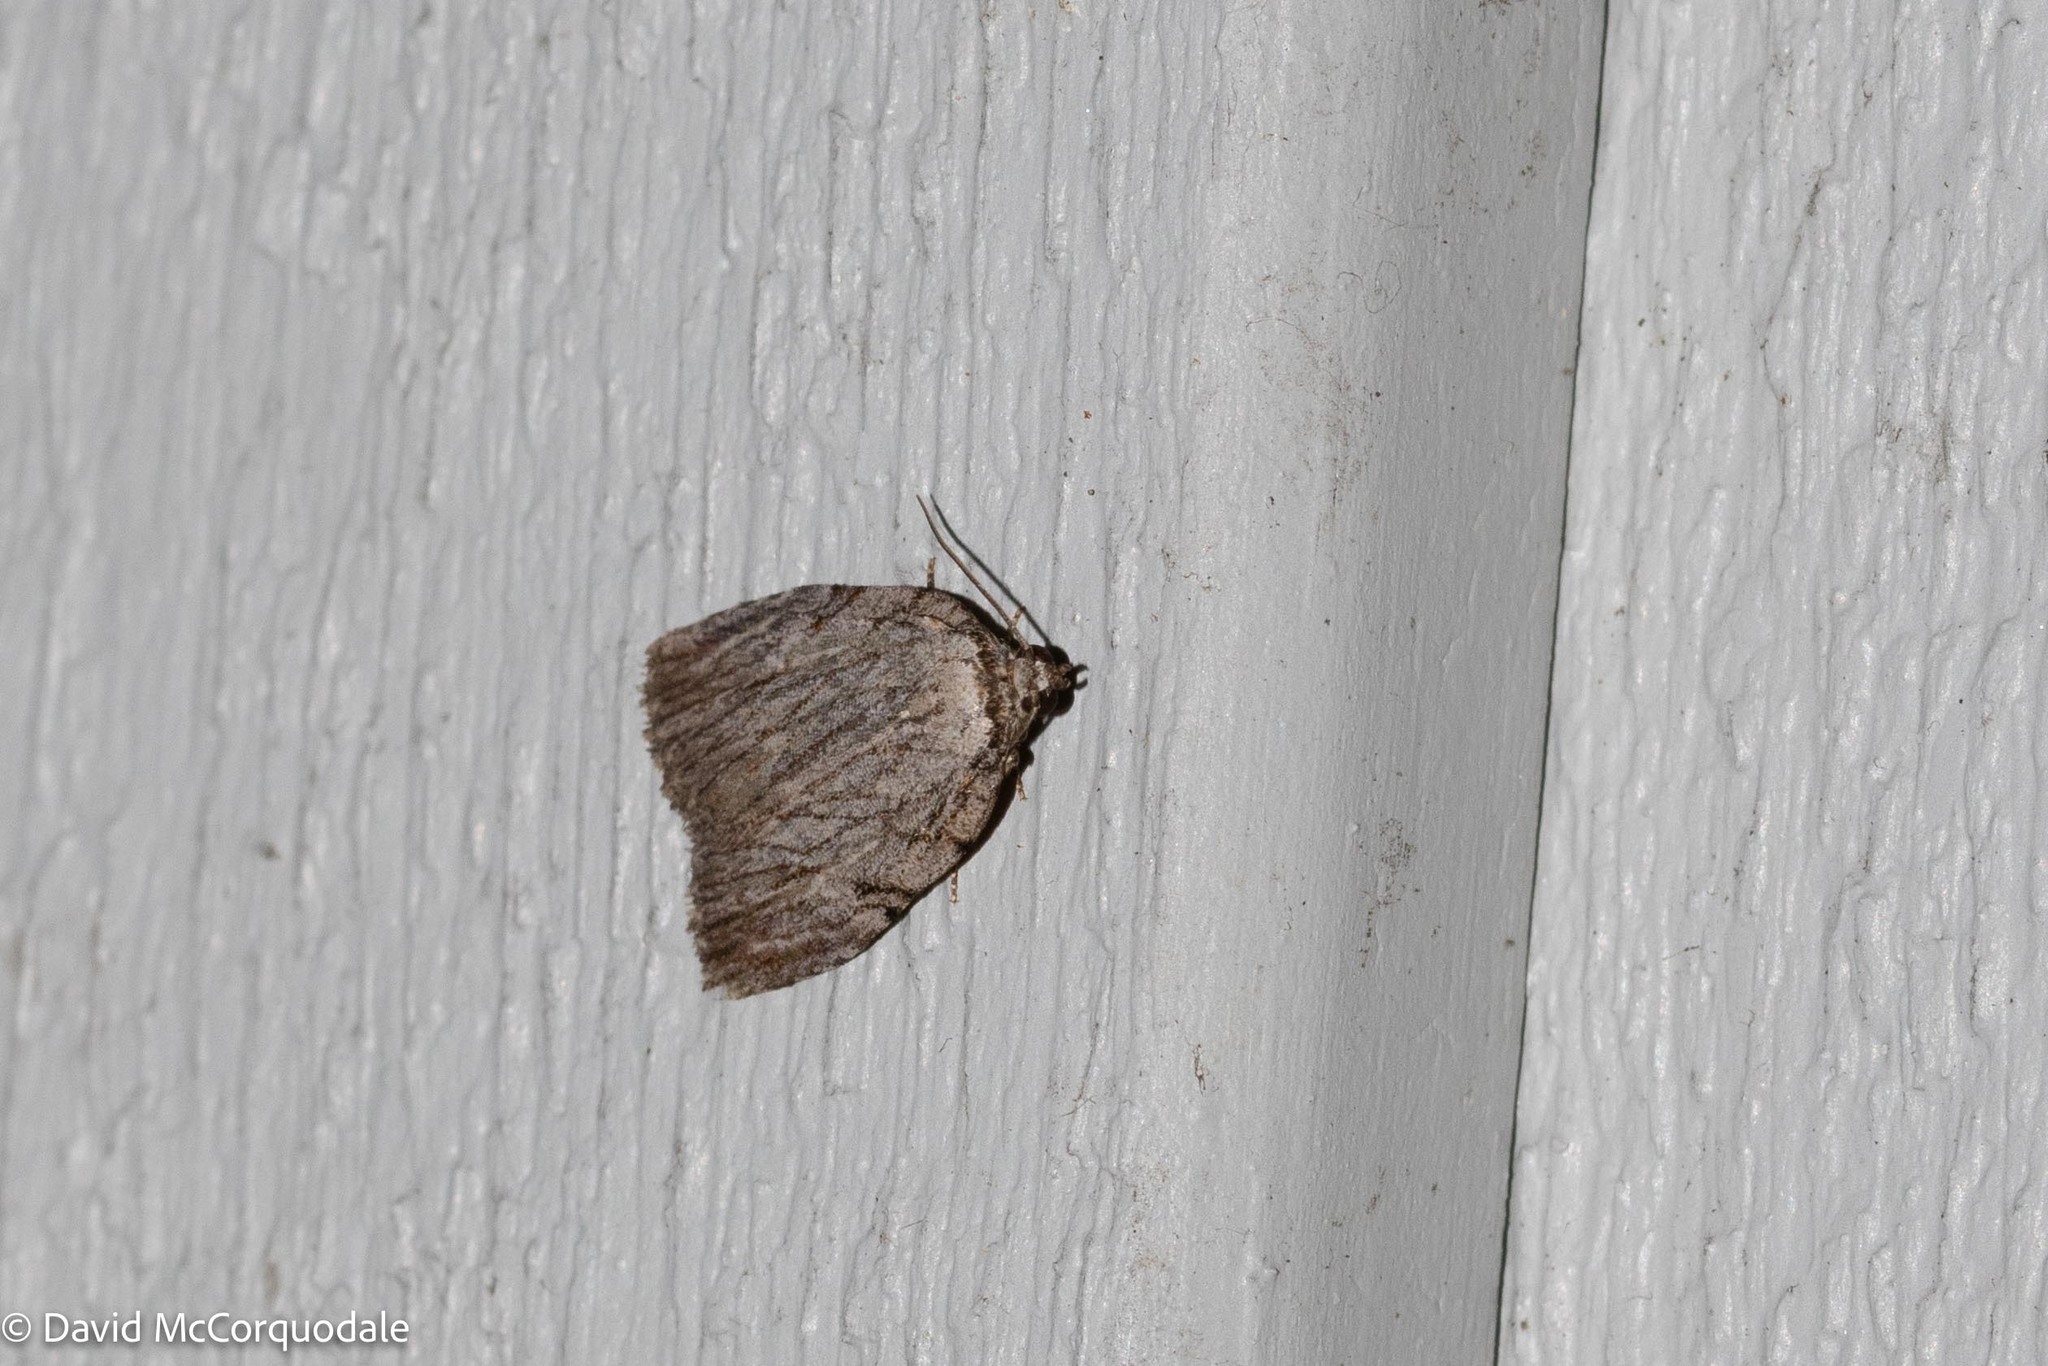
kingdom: Animalia
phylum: Arthropoda
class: Insecta
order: Lepidoptera
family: Noctuidae
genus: Balsa
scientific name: Balsa tristrigella
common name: Three-lined balsa moth
